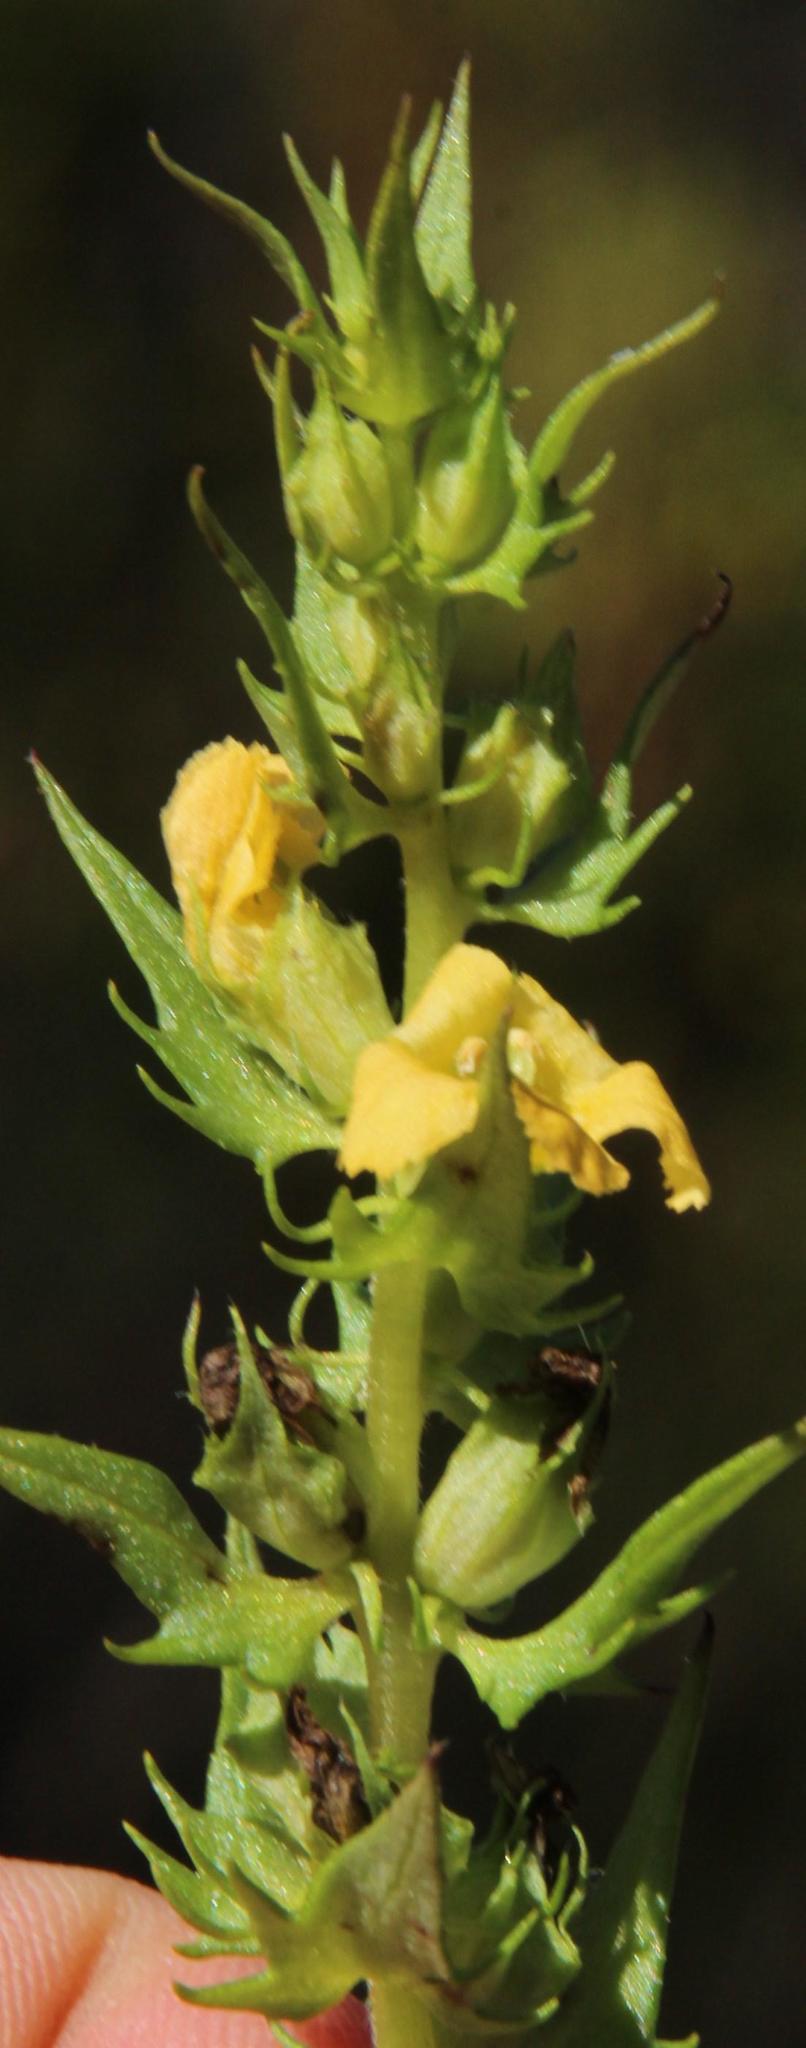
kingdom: Plantae
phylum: Tracheophyta
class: Magnoliopsida
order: Lamiales
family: Orobanchaceae
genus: Alectra
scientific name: Alectra sessiliflora
